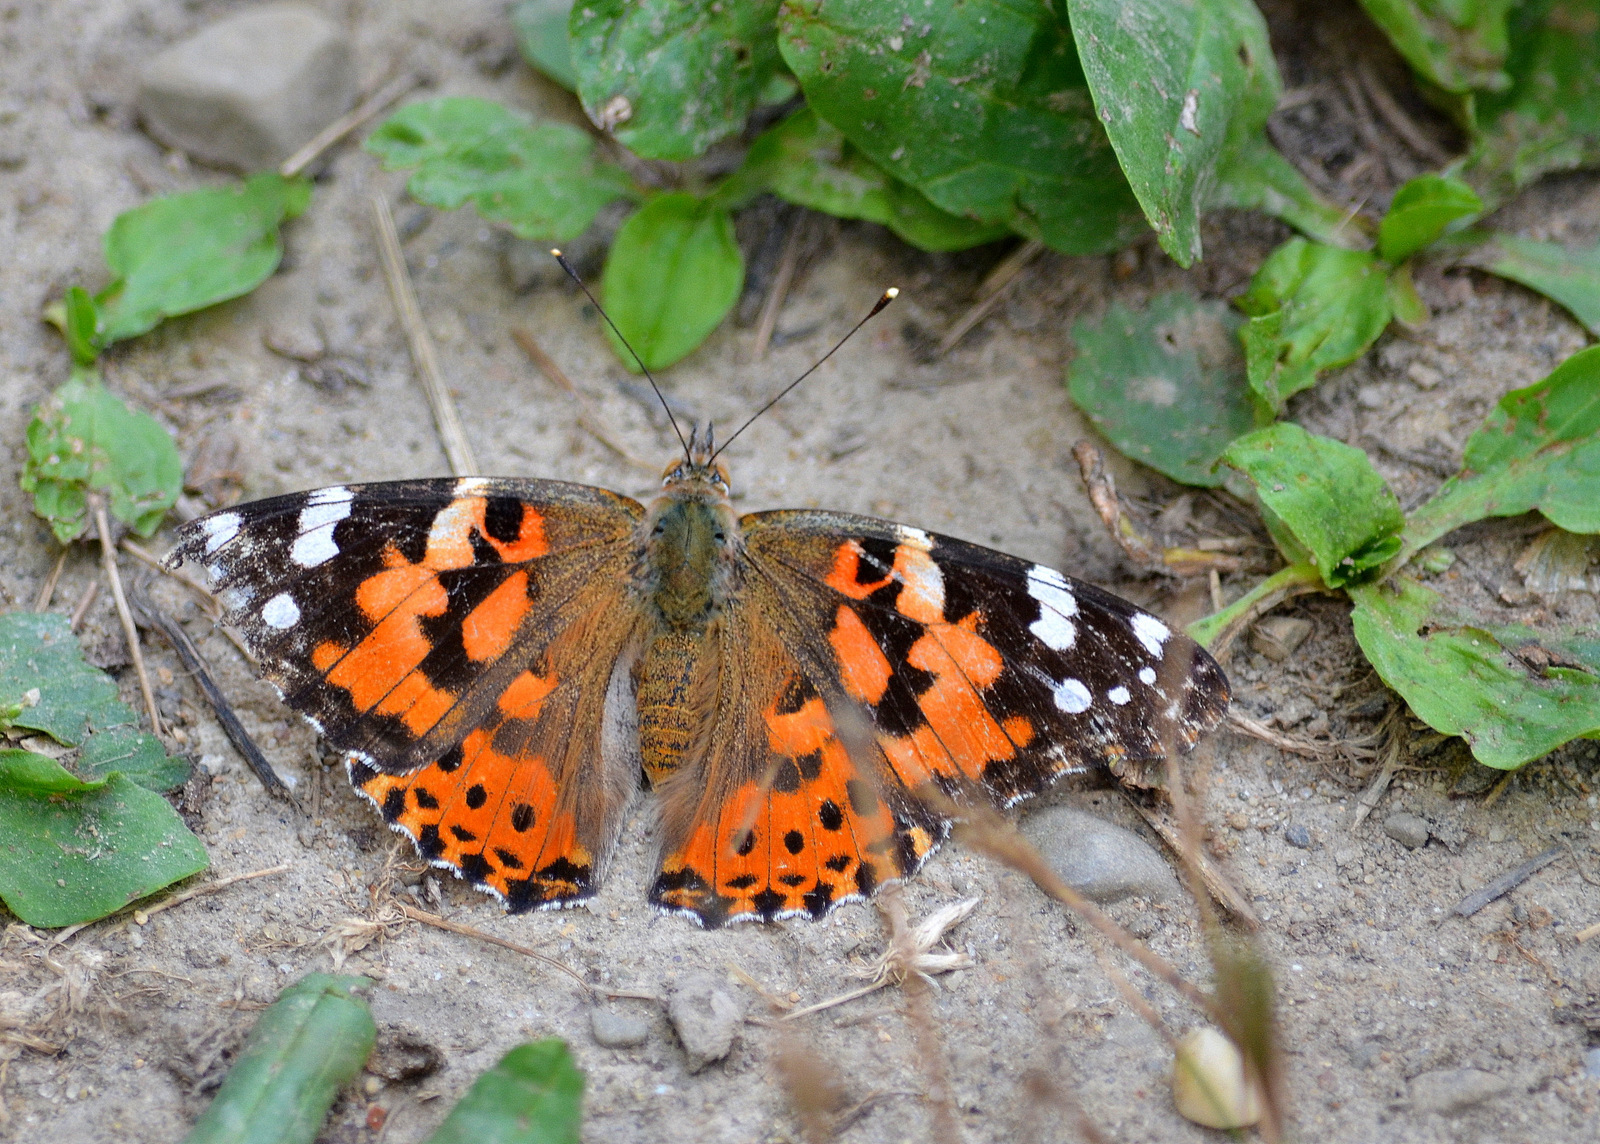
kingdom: Animalia
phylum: Arthropoda
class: Insecta
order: Lepidoptera
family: Nymphalidae
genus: Vanessa
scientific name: Vanessa cardui
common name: Painted lady
